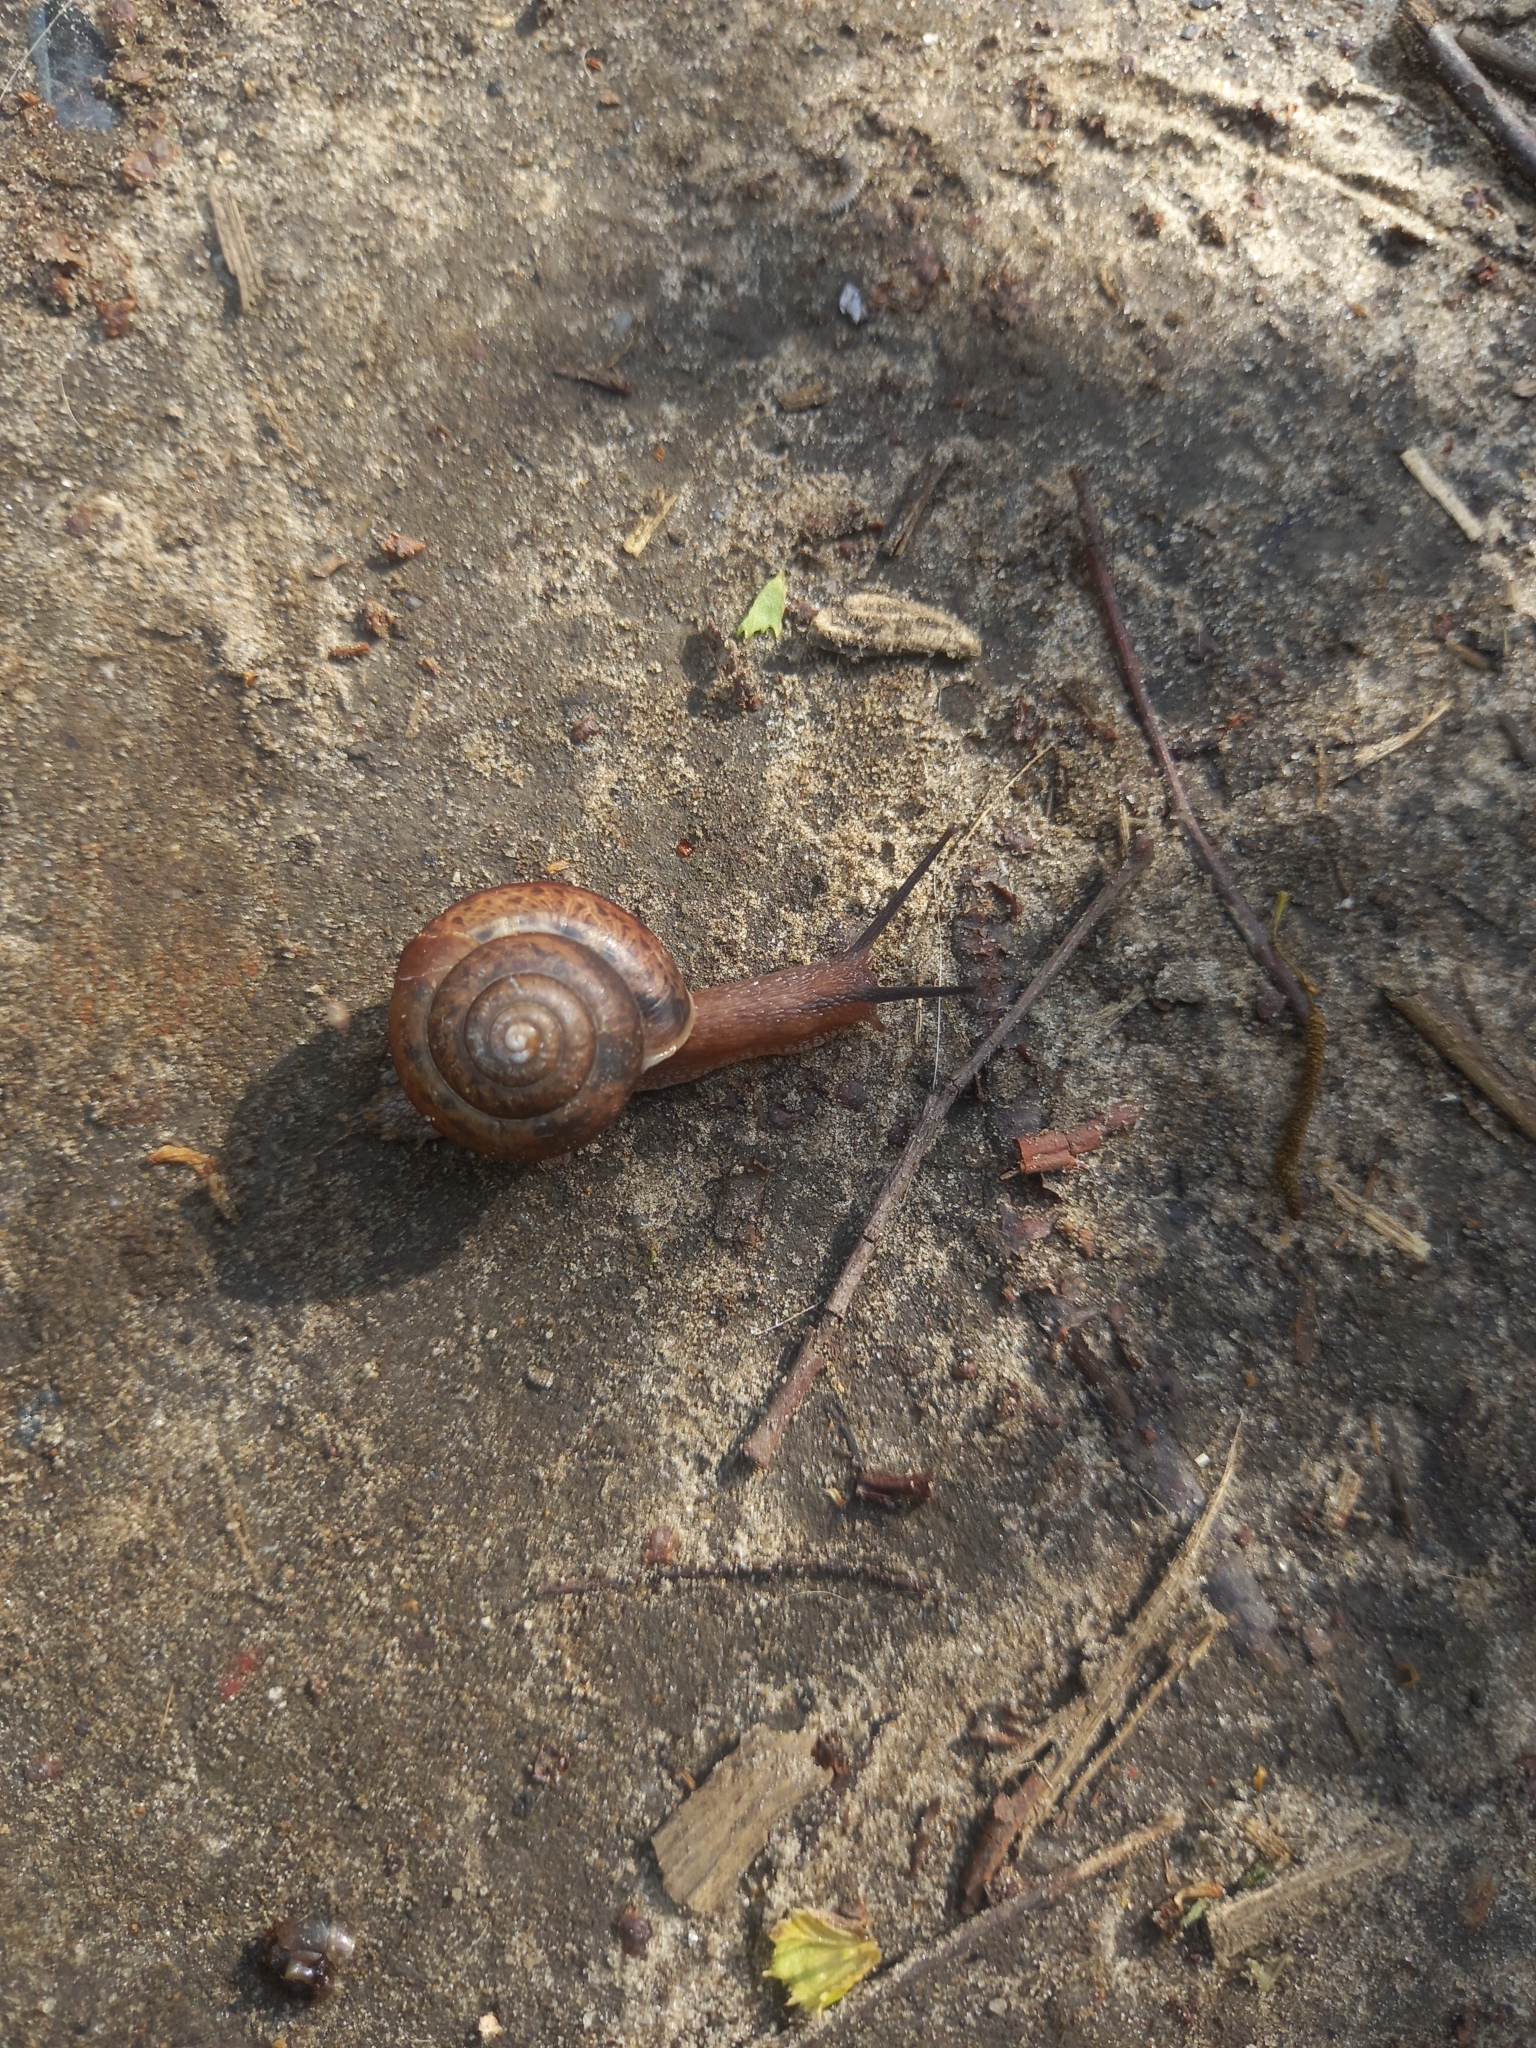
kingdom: Animalia
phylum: Mollusca
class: Gastropoda
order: Stylommatophora
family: Camaenidae
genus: Fruticicola
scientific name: Fruticicola fruticum
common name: Bush snail
